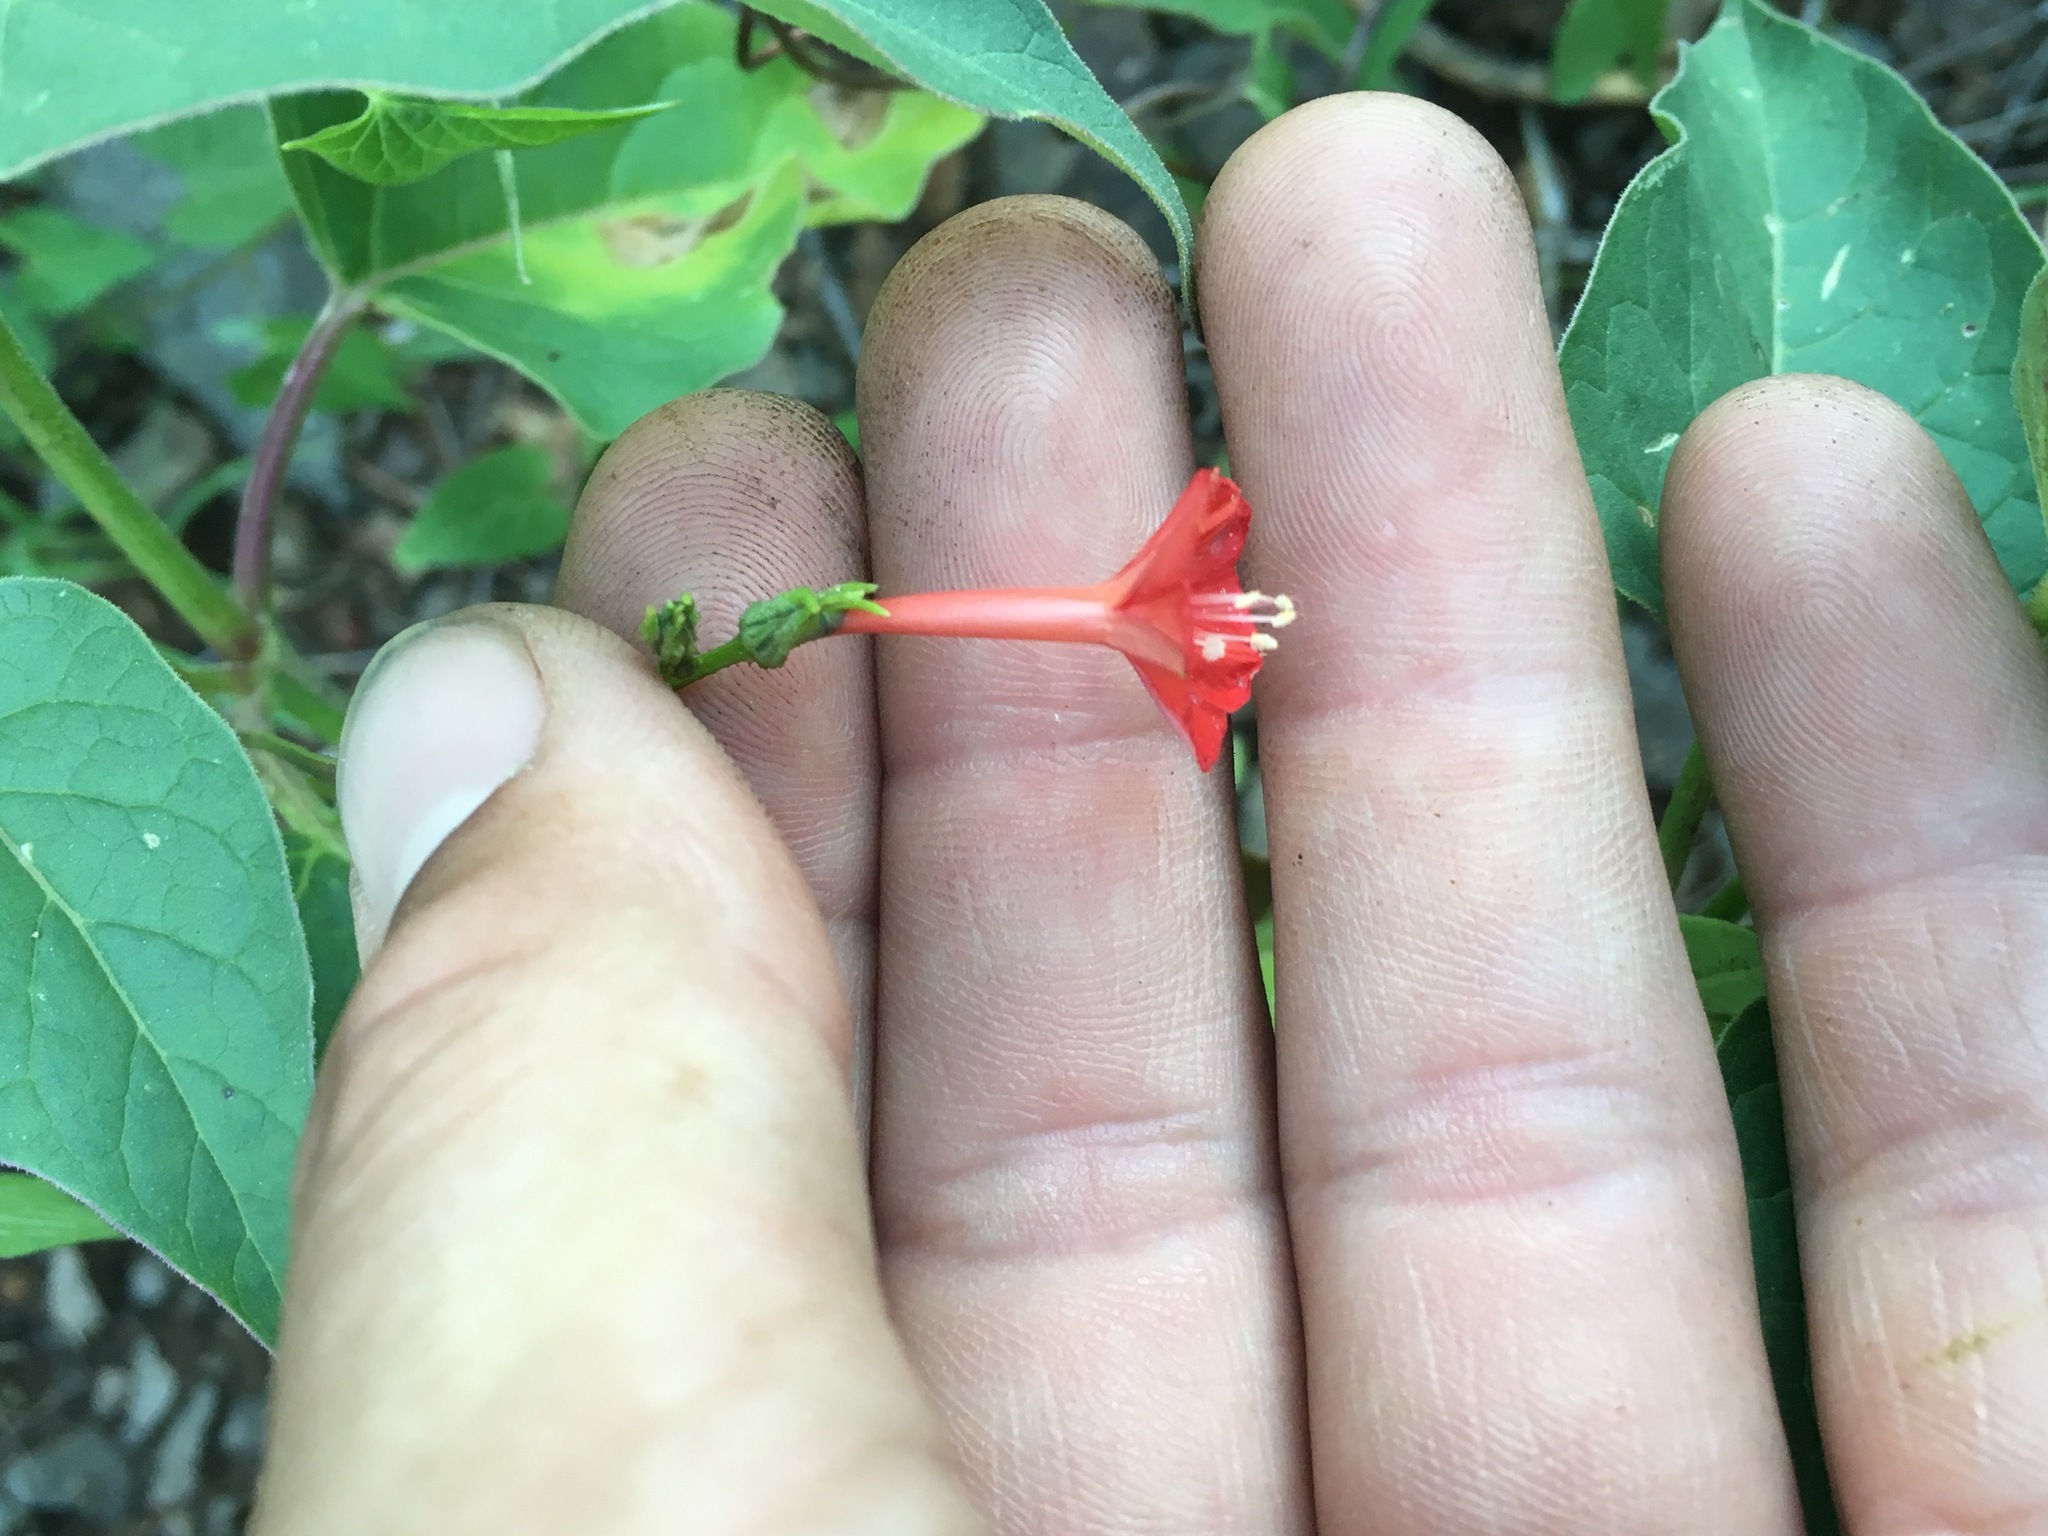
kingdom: Plantae
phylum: Tracheophyta
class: Magnoliopsida
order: Solanales
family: Convolvulaceae
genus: Ipomoea
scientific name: Ipomoea cristulata
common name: Trans-pecos morning-glory
